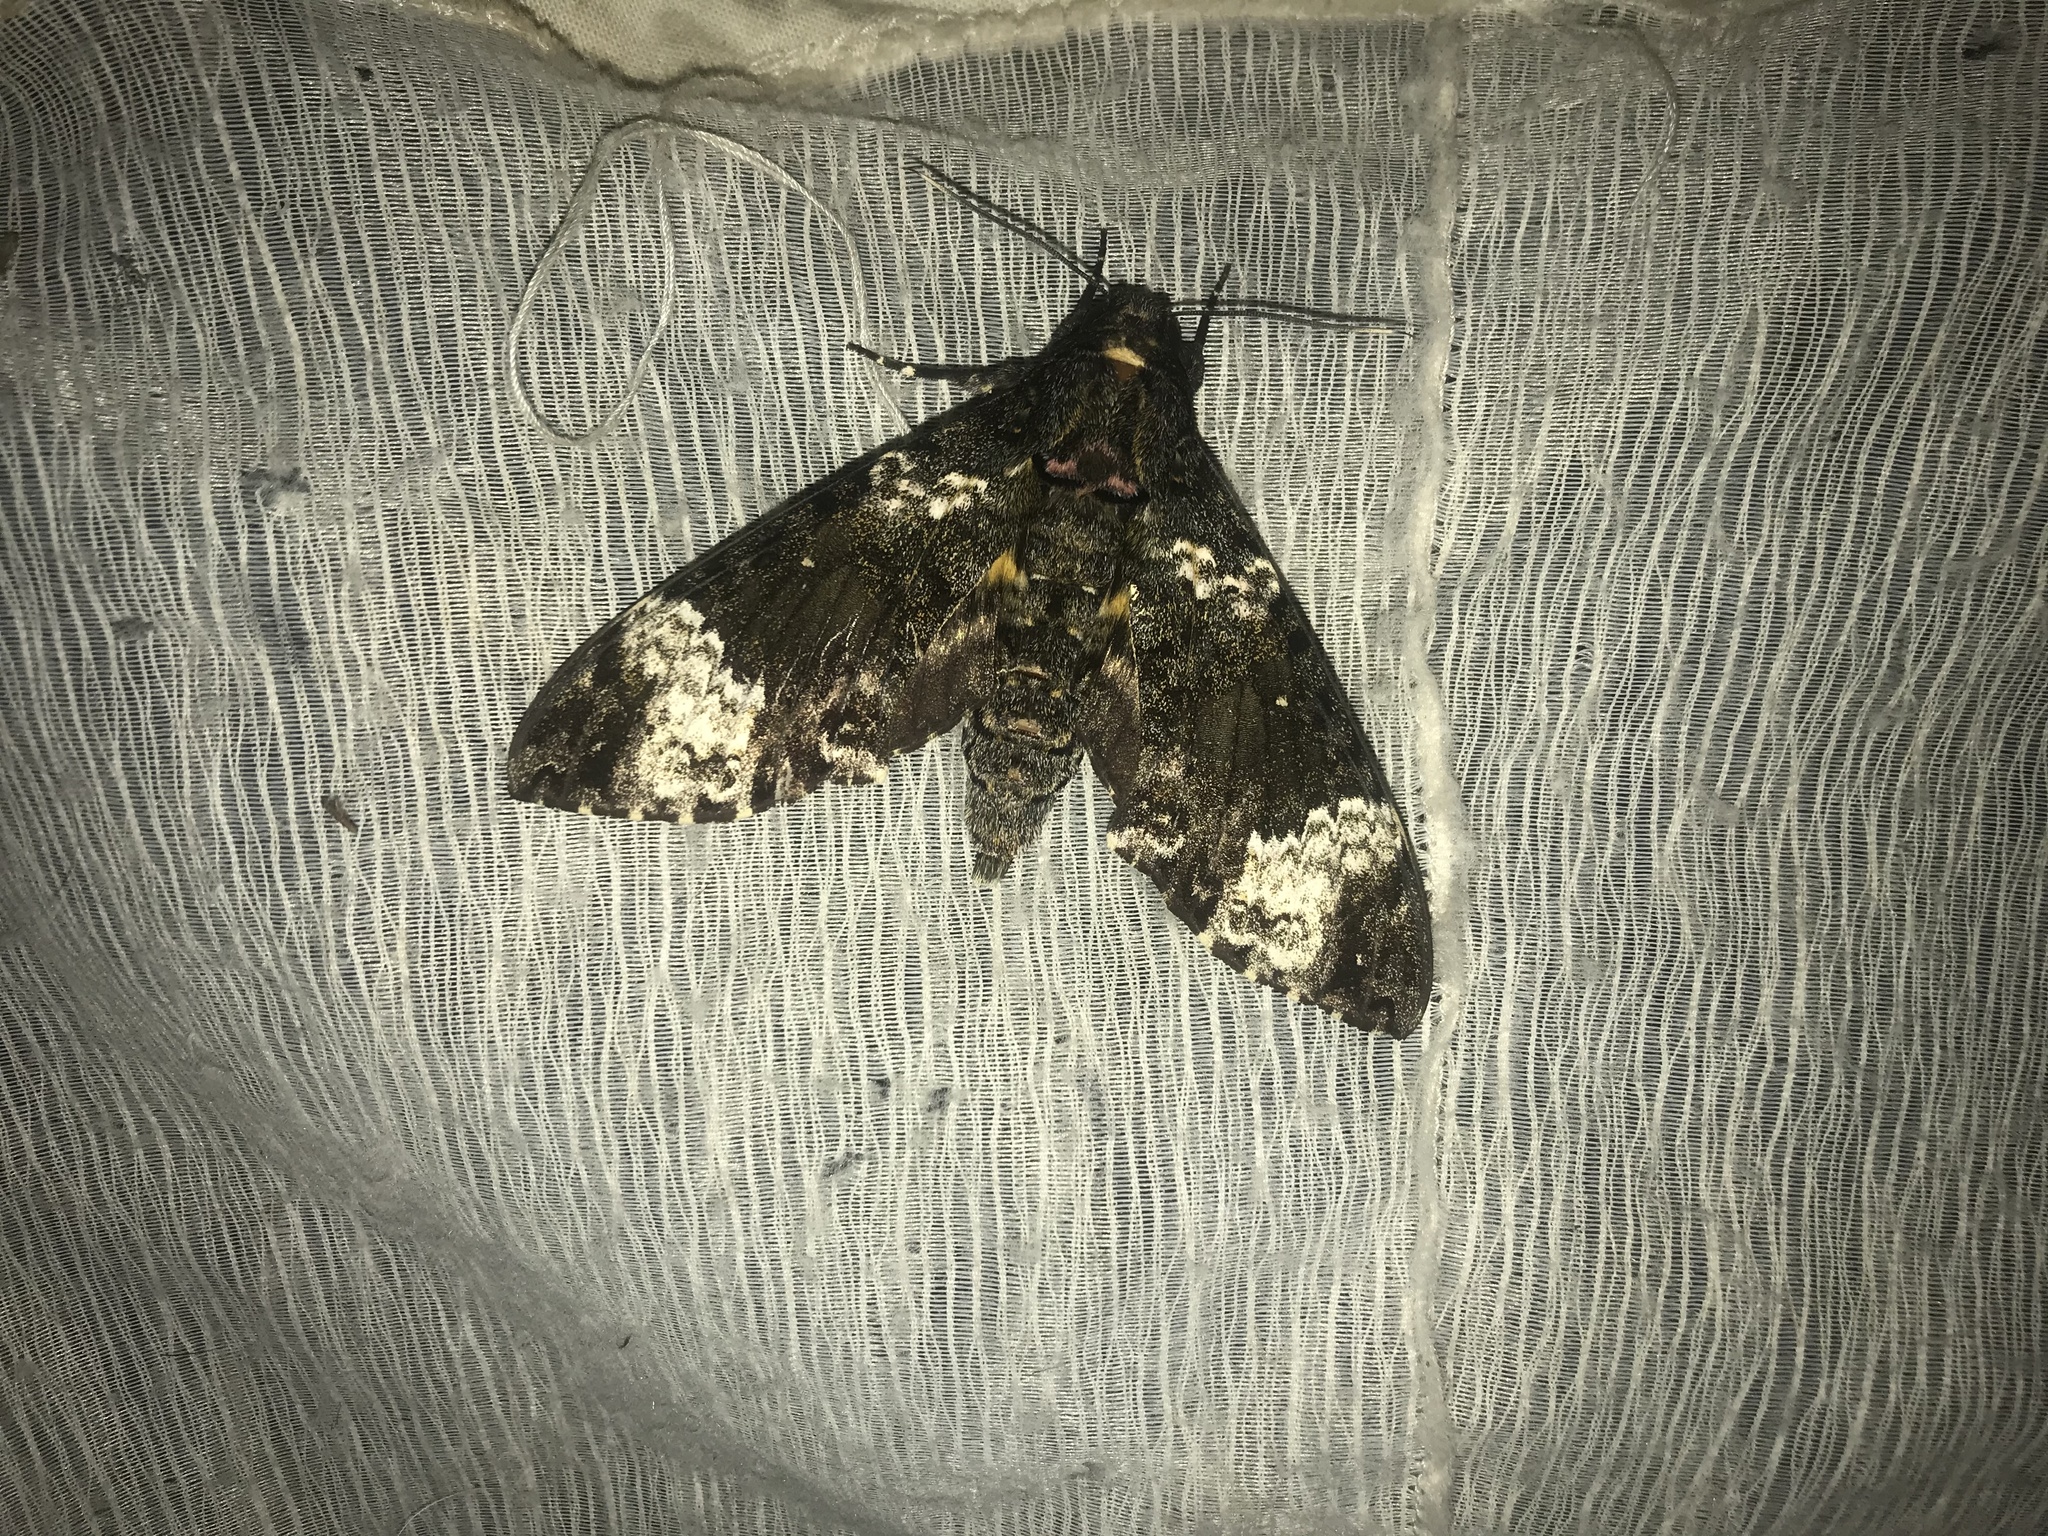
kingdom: Animalia
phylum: Arthropoda
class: Insecta
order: Lepidoptera
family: Sphingidae
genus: Coelonia
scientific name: Coelonia fulvinotata
